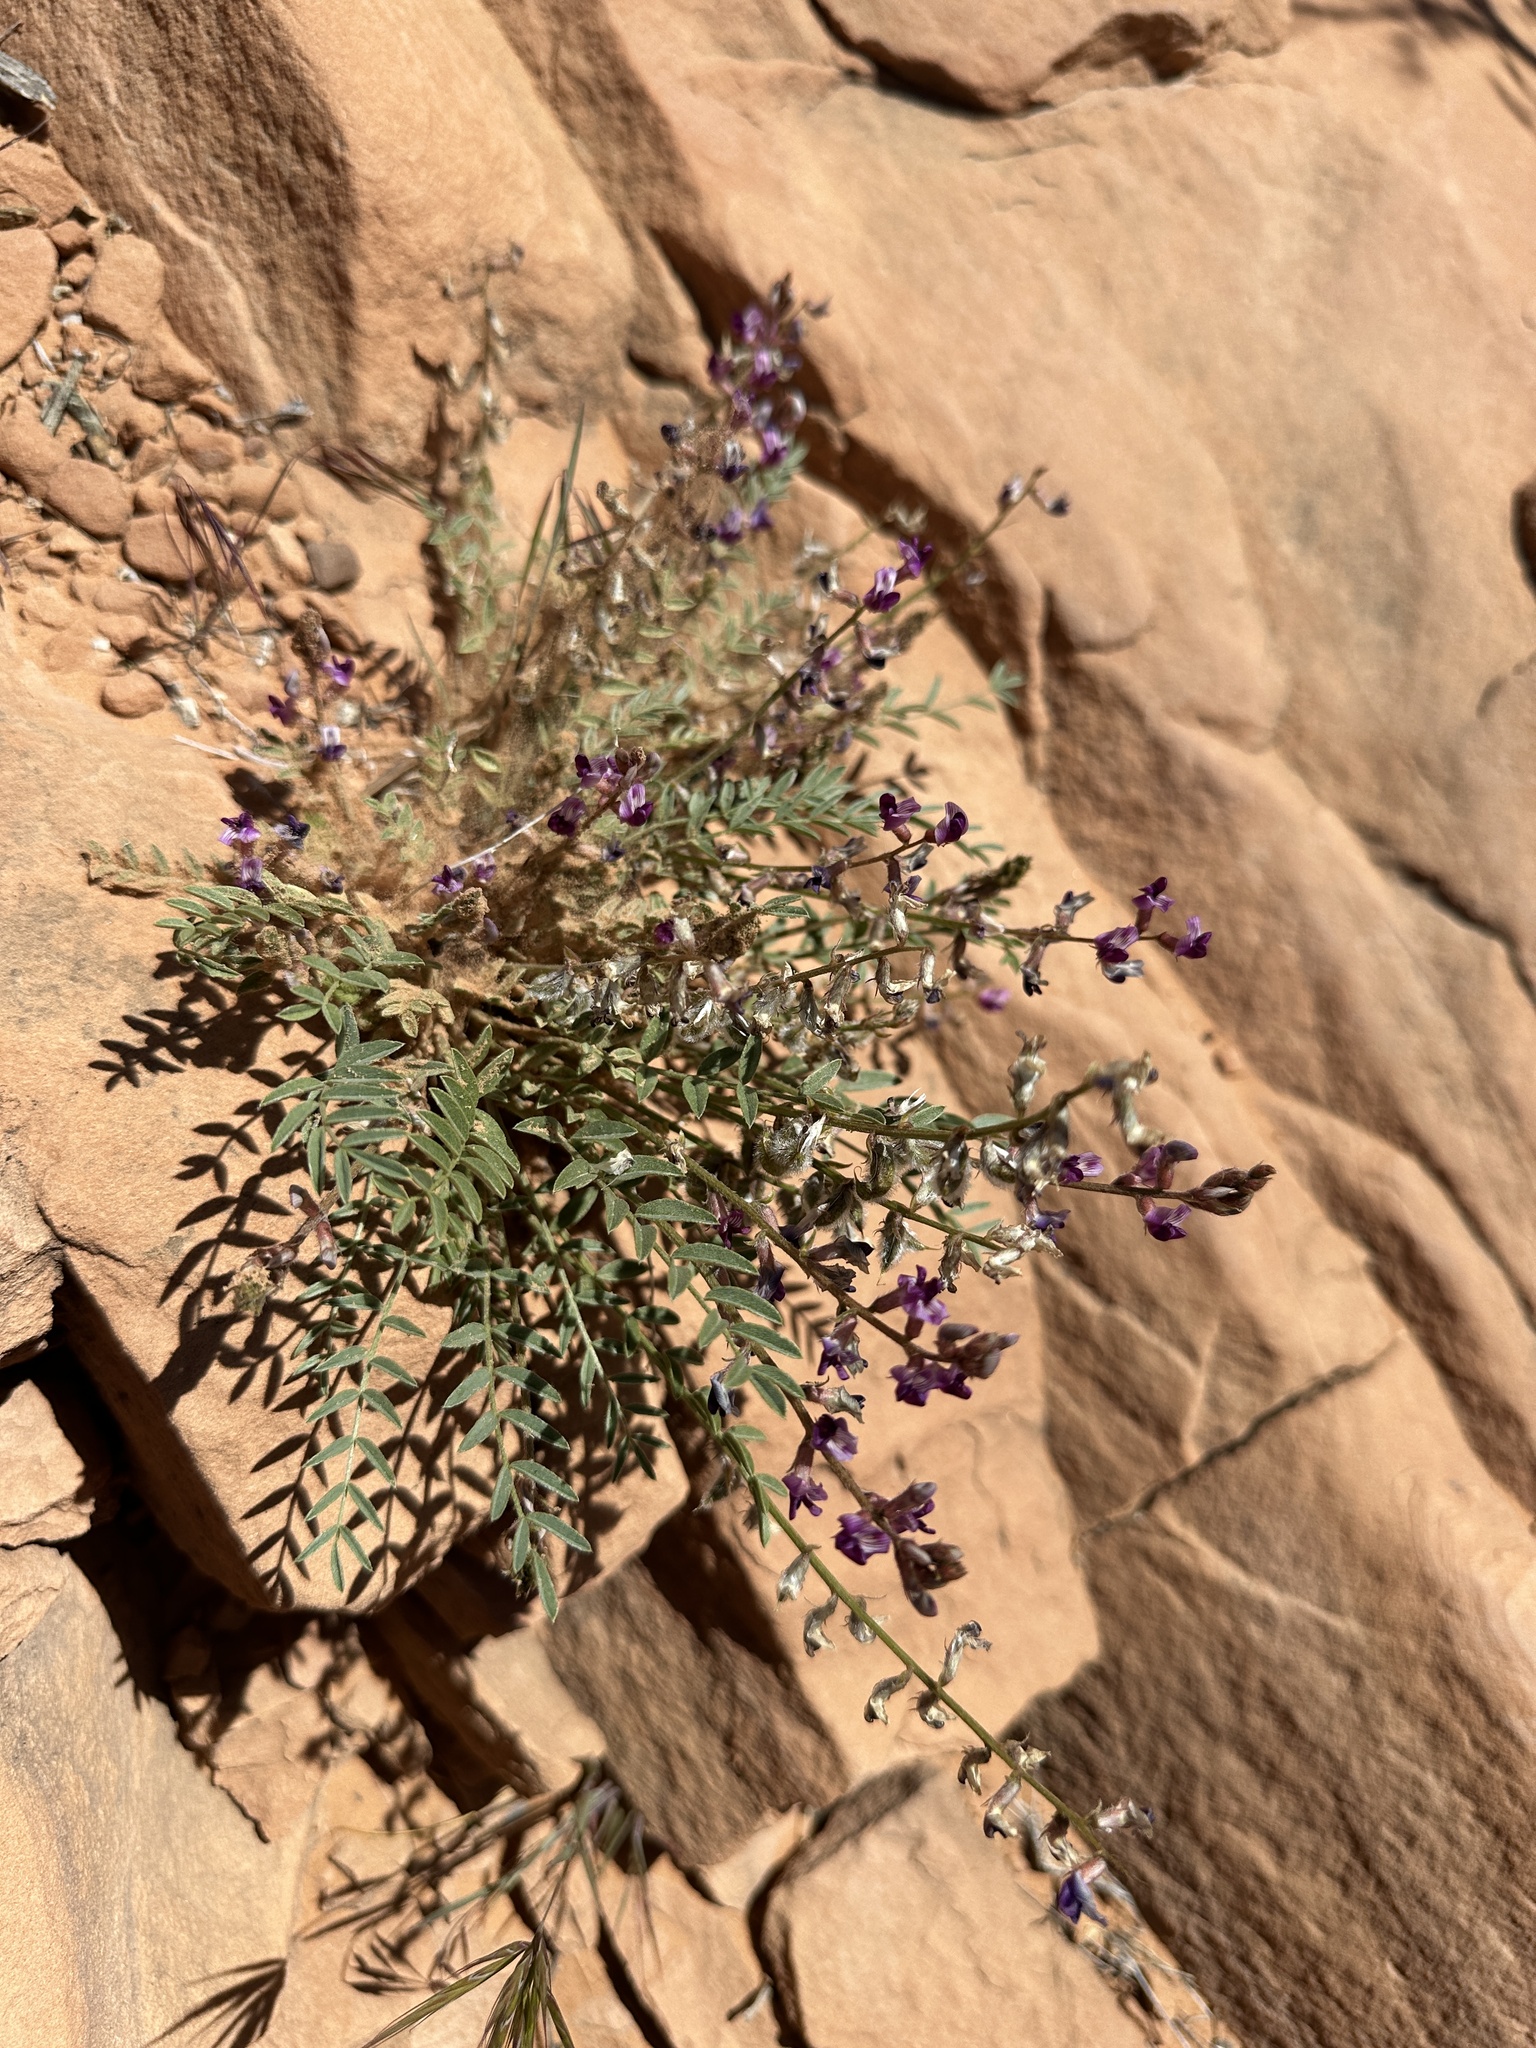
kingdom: Plantae
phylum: Tracheophyta
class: Magnoliopsida
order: Fabales
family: Fabaceae
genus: Astragalus
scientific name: Astragalus desperatus
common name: Rimrock milk-vetch
